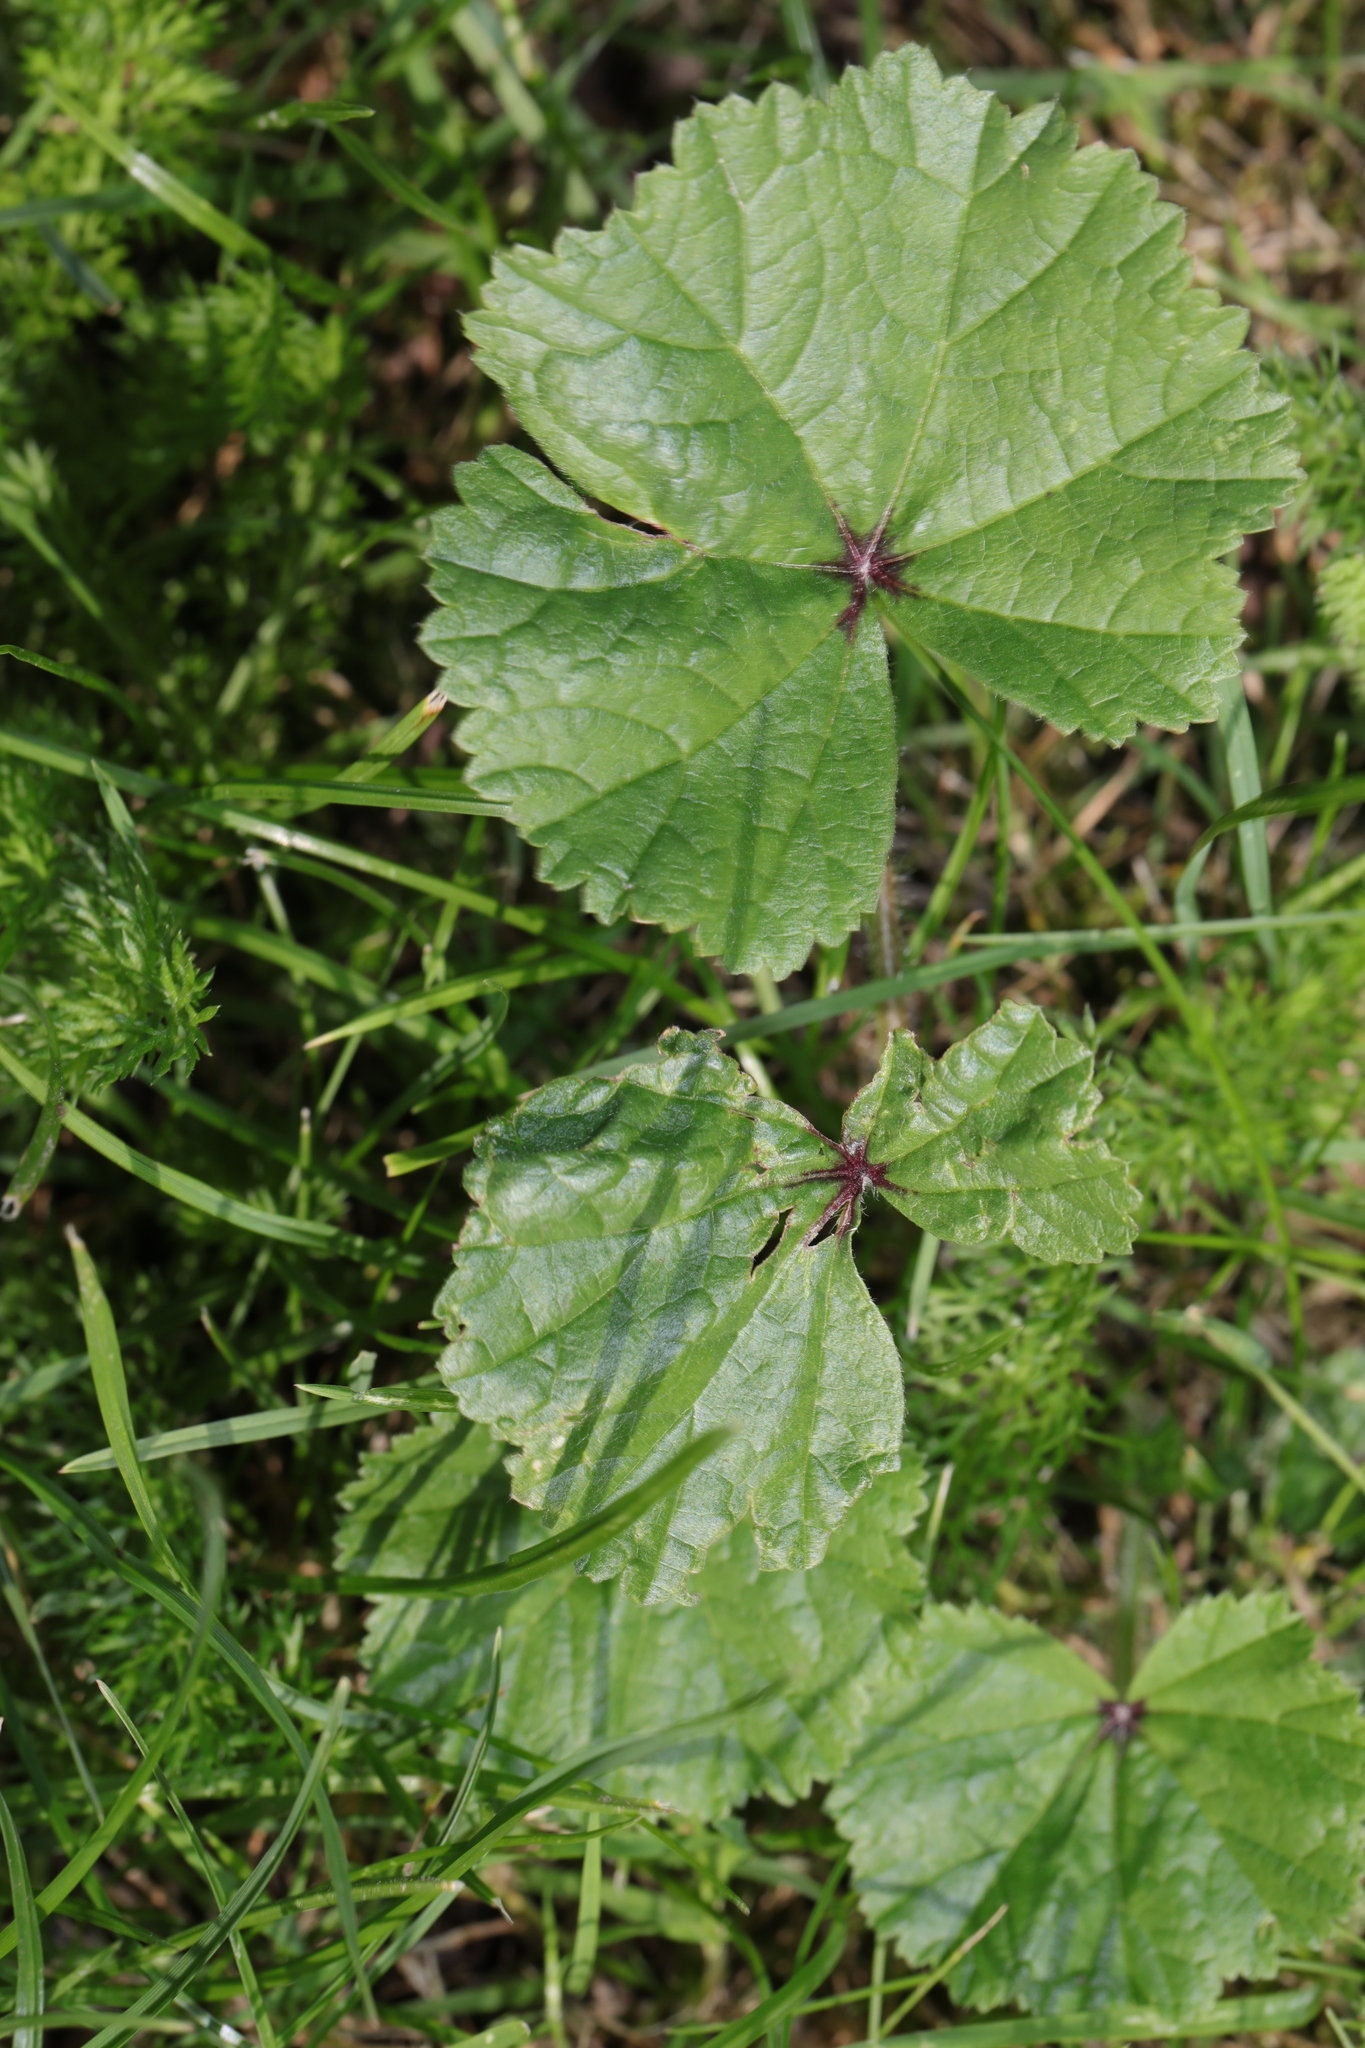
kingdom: Plantae
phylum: Tracheophyta
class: Magnoliopsida
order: Malvales
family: Malvaceae
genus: Malva
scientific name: Malva sylvestris
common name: Common mallow
